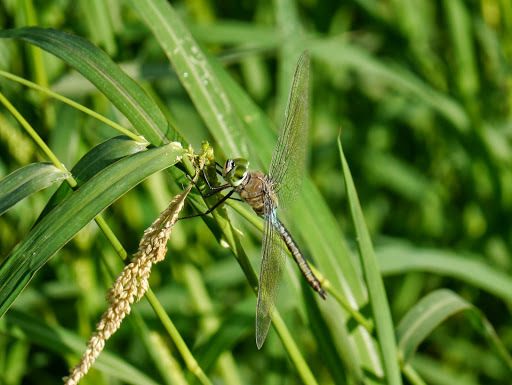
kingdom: Animalia
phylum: Arthropoda
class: Insecta
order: Odonata
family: Aeshnidae
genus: Anax
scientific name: Anax parthenope
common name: Lesser emperor
